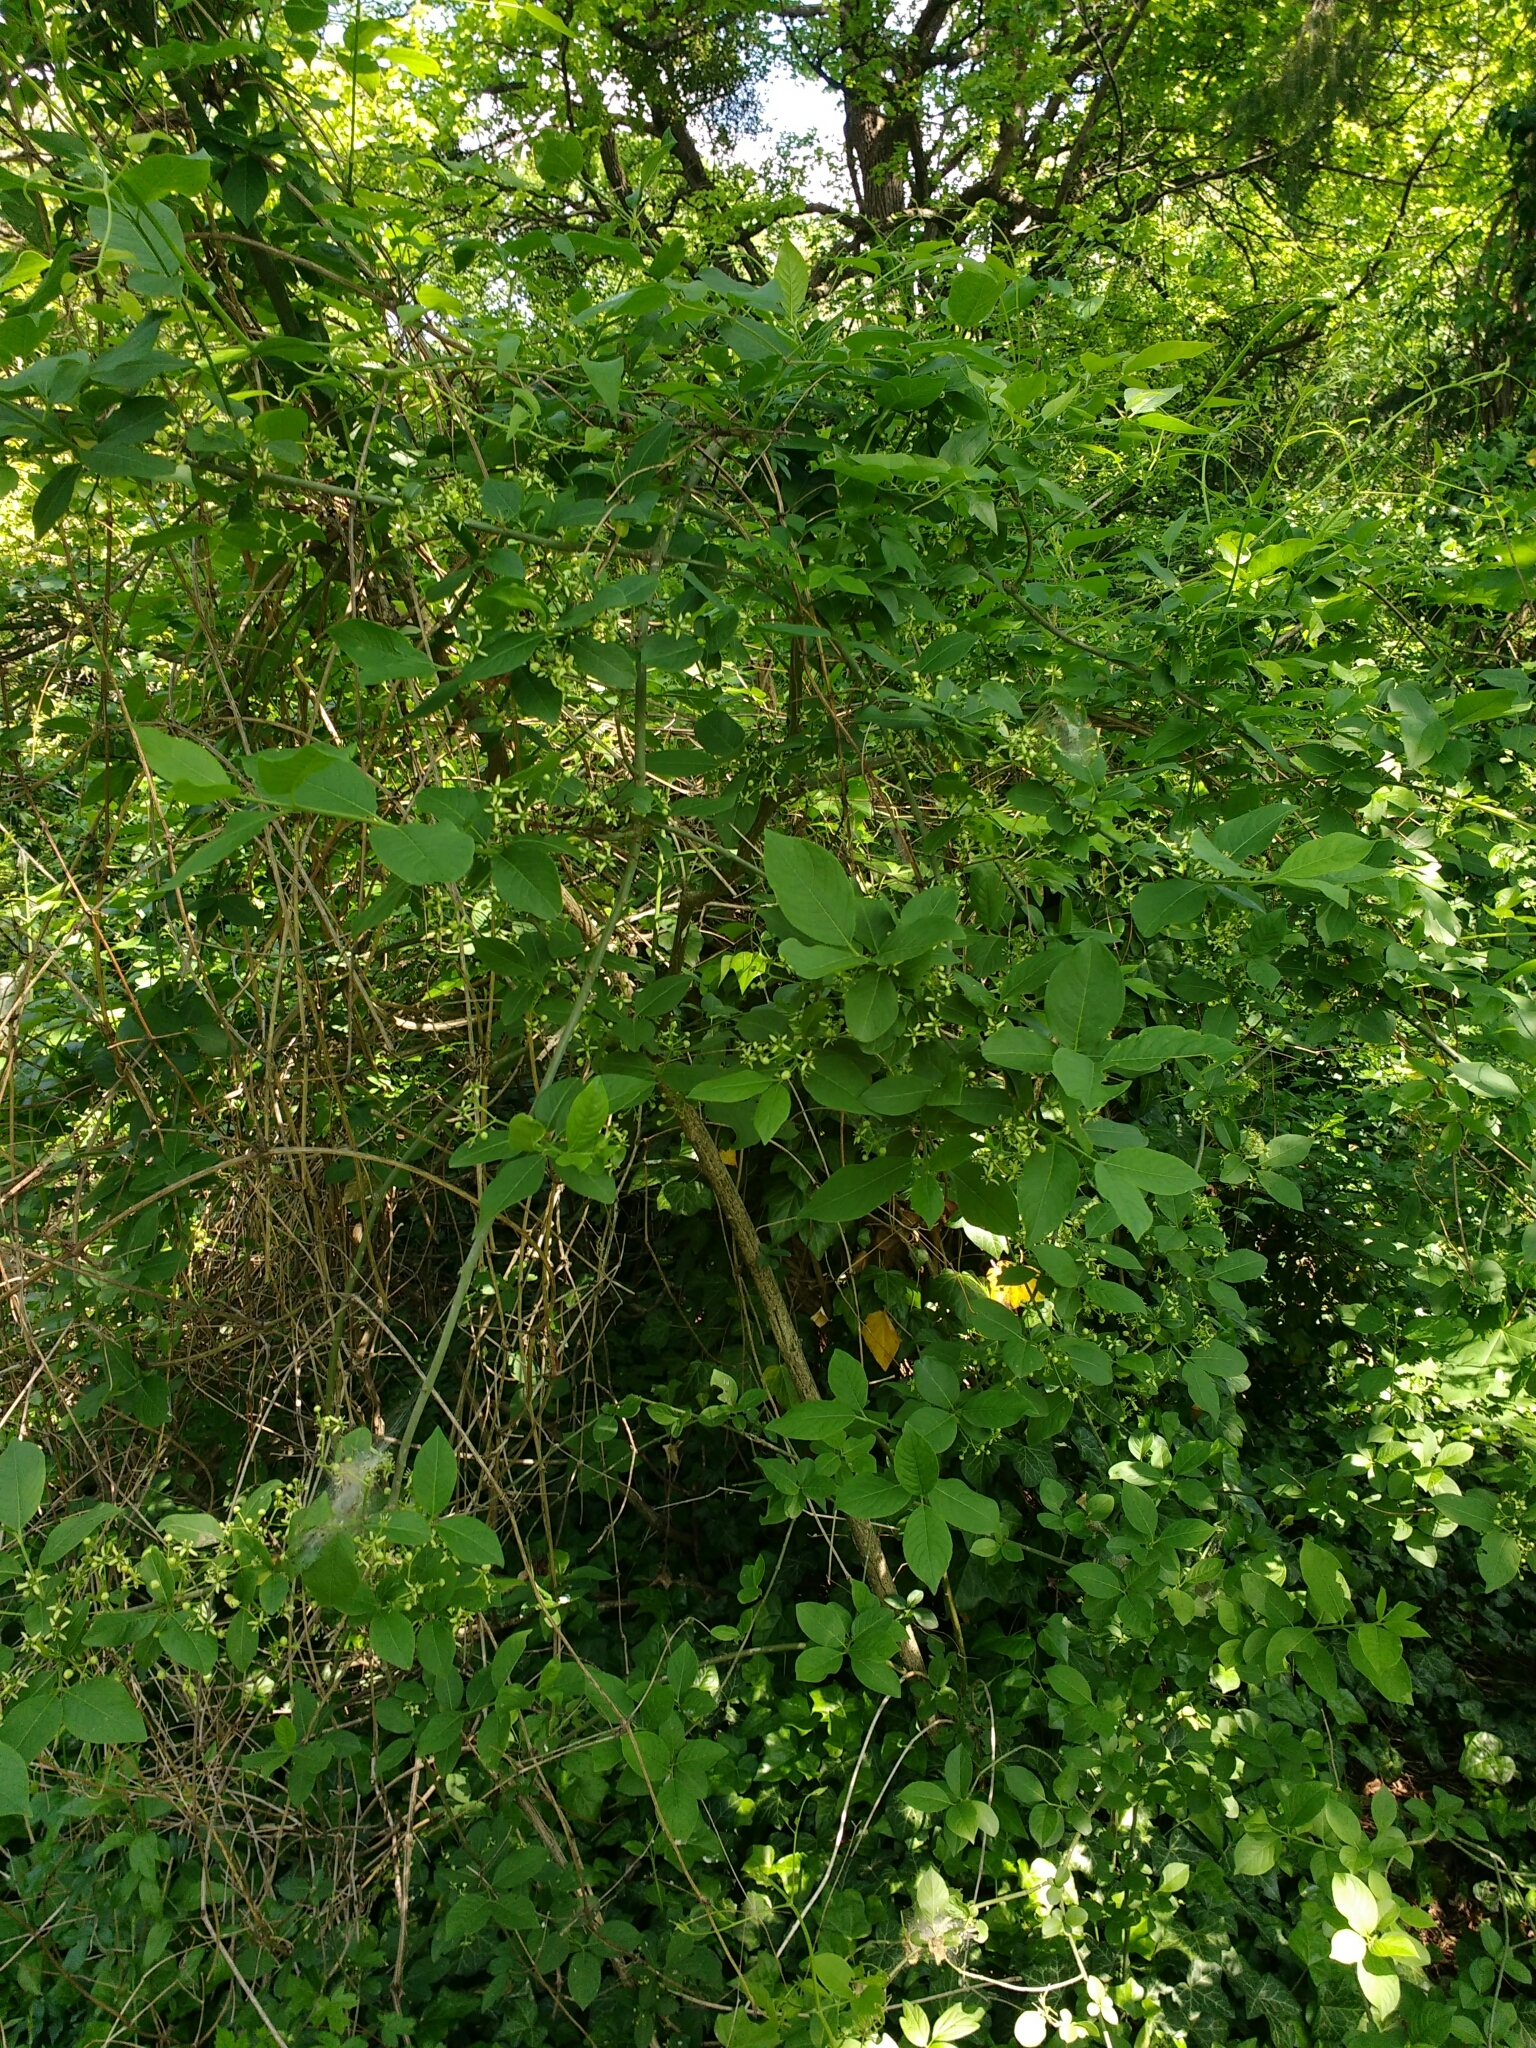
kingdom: Plantae
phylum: Tracheophyta
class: Magnoliopsida
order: Celastrales
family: Celastraceae
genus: Euonymus
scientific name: Euonymus europaeus
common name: Spindle
